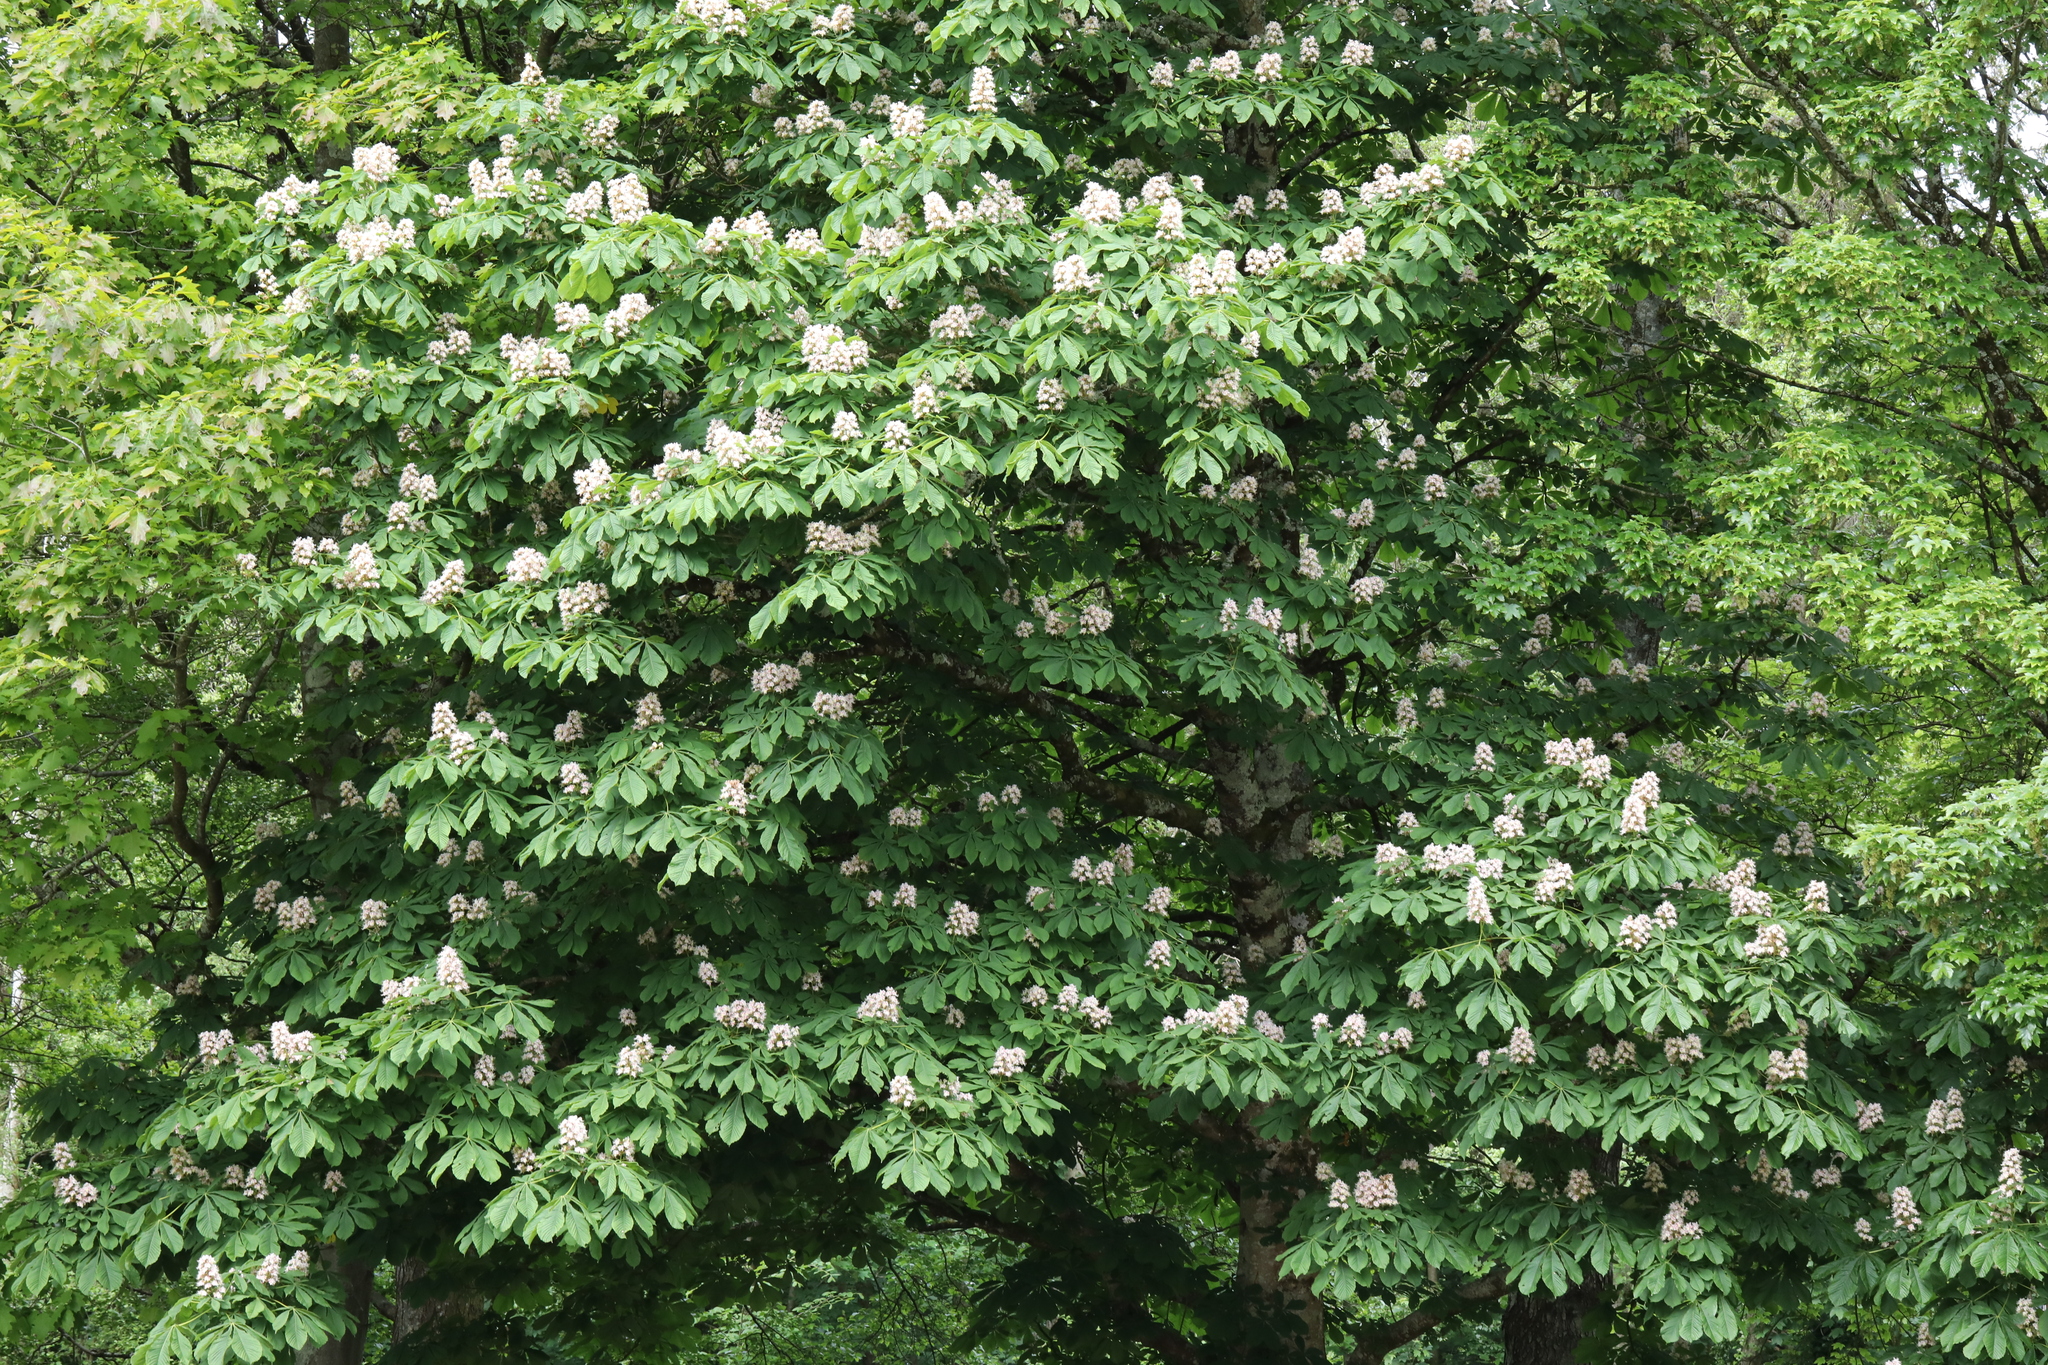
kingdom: Plantae
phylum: Tracheophyta
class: Magnoliopsida
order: Sapindales
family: Sapindaceae
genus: Aesculus
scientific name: Aesculus hippocastanum
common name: Horse-chestnut
